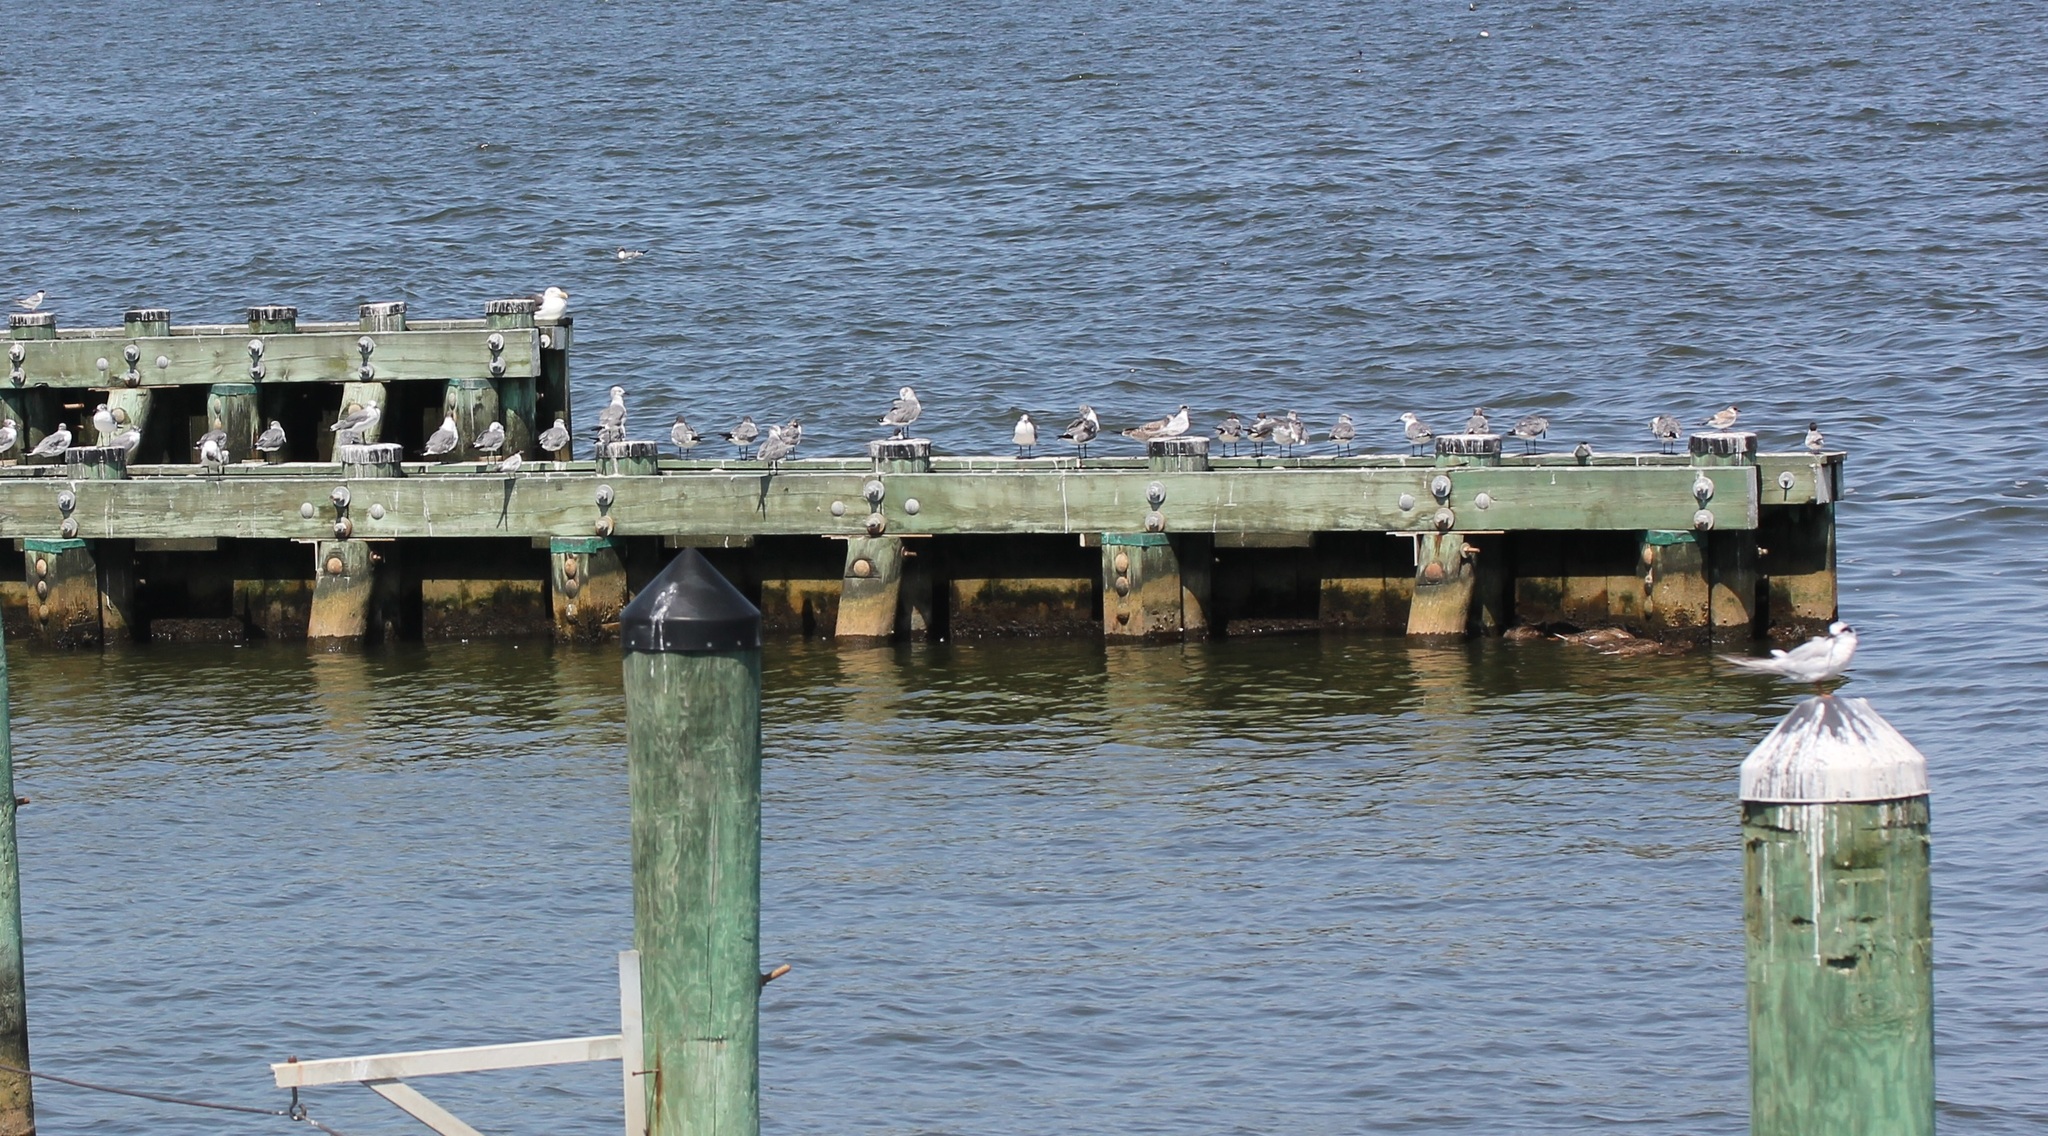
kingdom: Animalia
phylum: Chordata
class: Aves
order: Charadriiformes
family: Laridae
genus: Sterna
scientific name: Sterna forsteri
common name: Forster's tern
